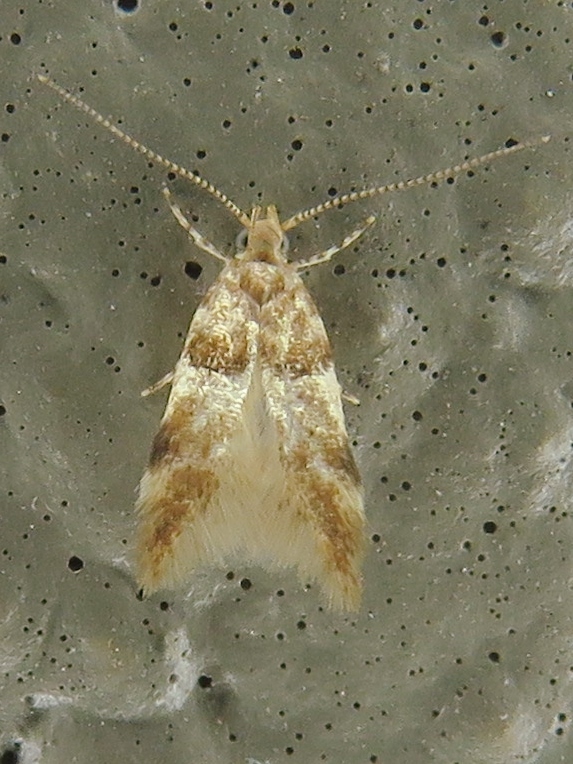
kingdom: Animalia
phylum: Arthropoda
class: Insecta
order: Lepidoptera
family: Gelechiidae
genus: Theisoa
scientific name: Theisoa constrictella
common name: Constricted twirler
